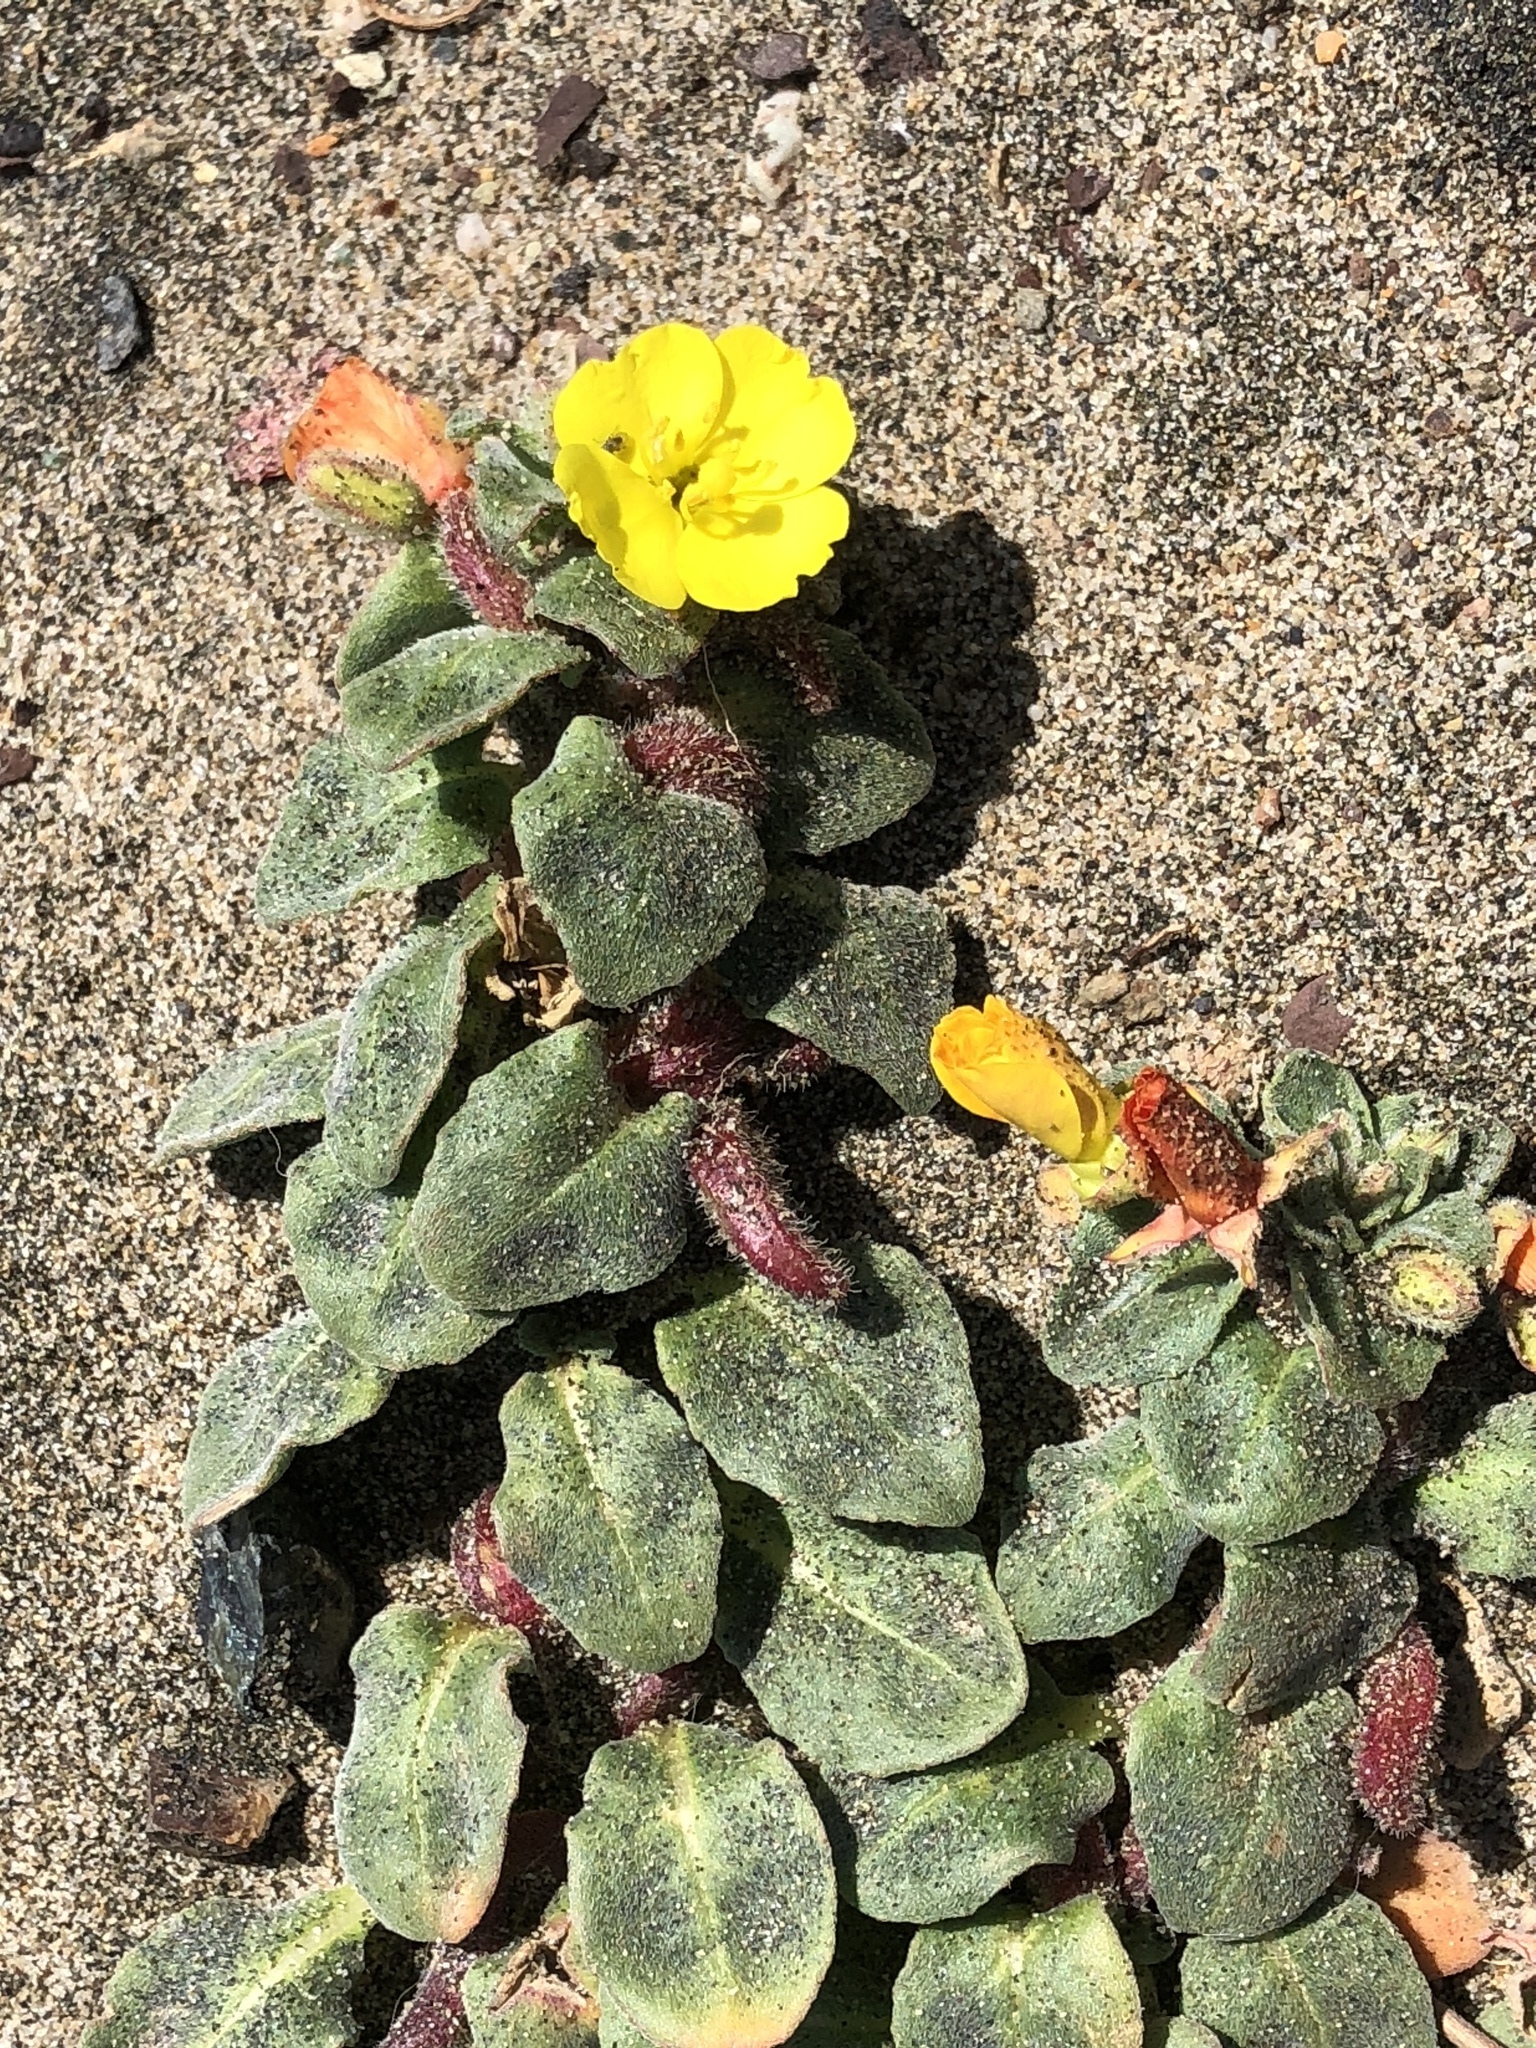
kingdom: Plantae
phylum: Tracheophyta
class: Magnoliopsida
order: Myrtales
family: Onagraceae
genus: Camissoniopsis
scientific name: Camissoniopsis cheiranthifolia
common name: Beach suncup
